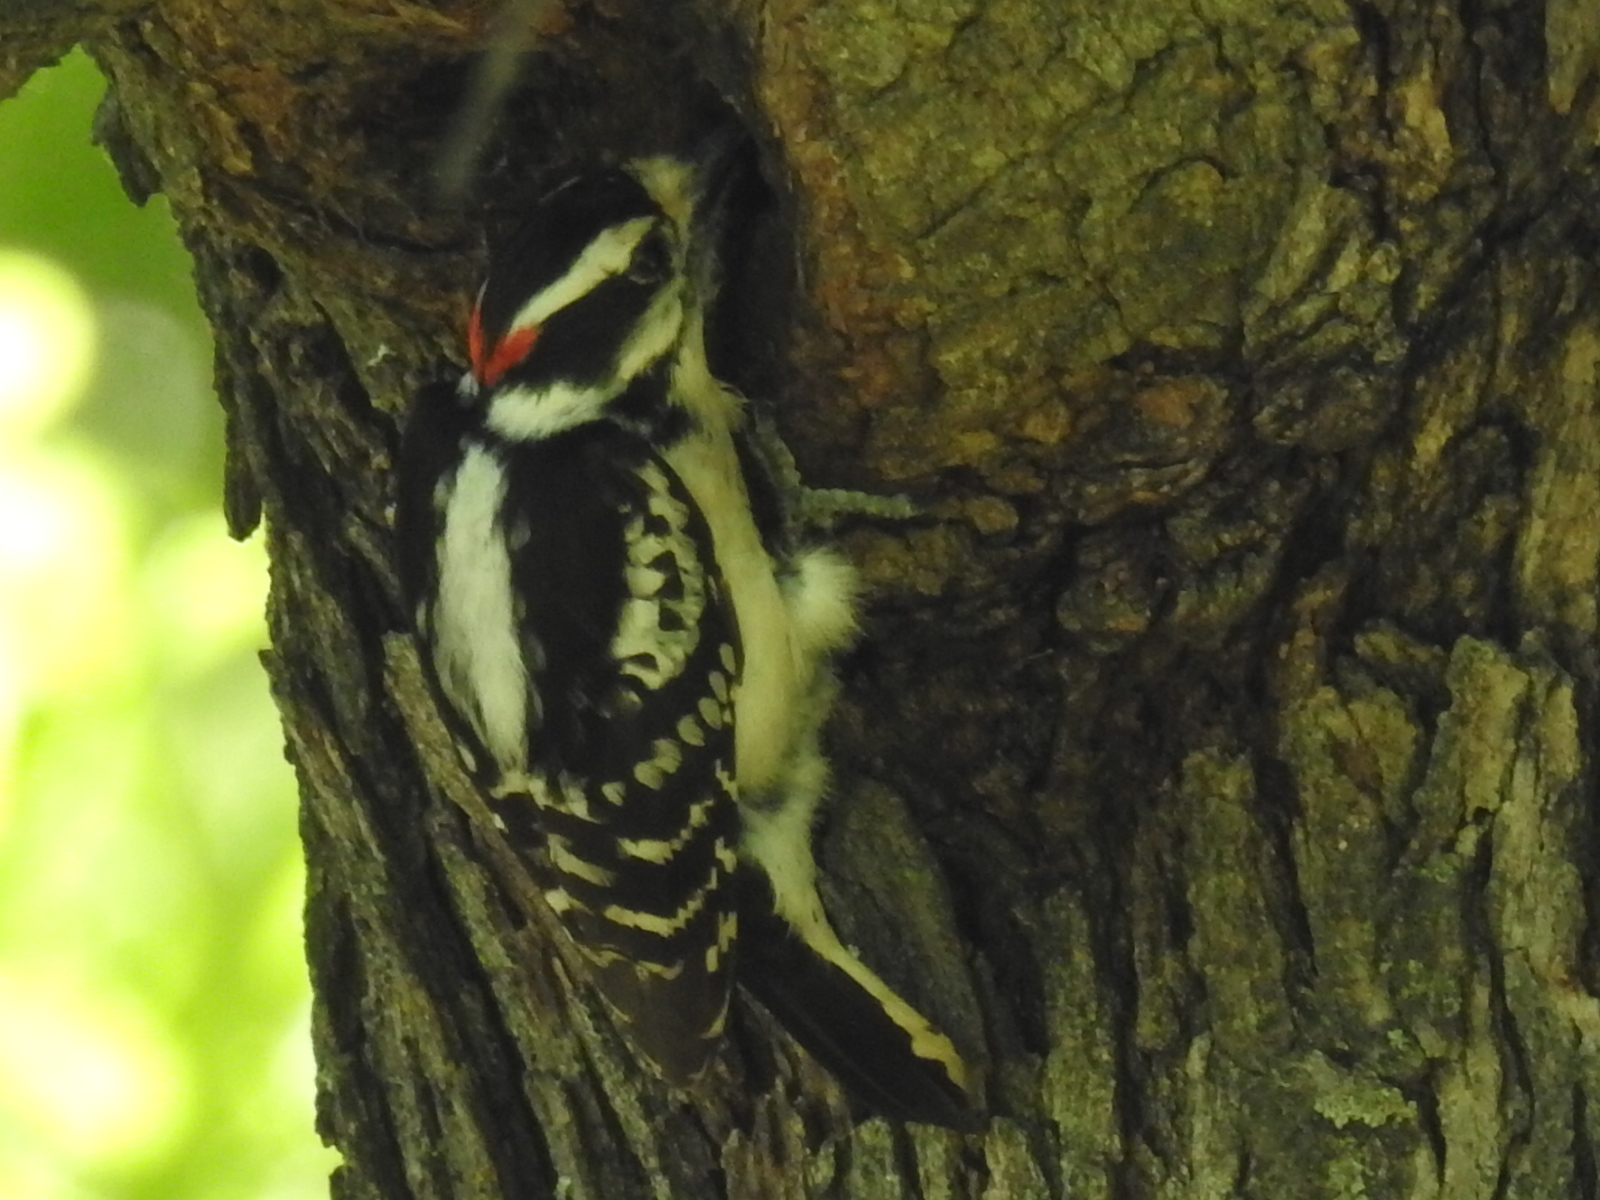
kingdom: Animalia
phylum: Chordata
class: Aves
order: Piciformes
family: Picidae
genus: Dryobates
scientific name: Dryobates pubescens
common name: Downy woodpecker
